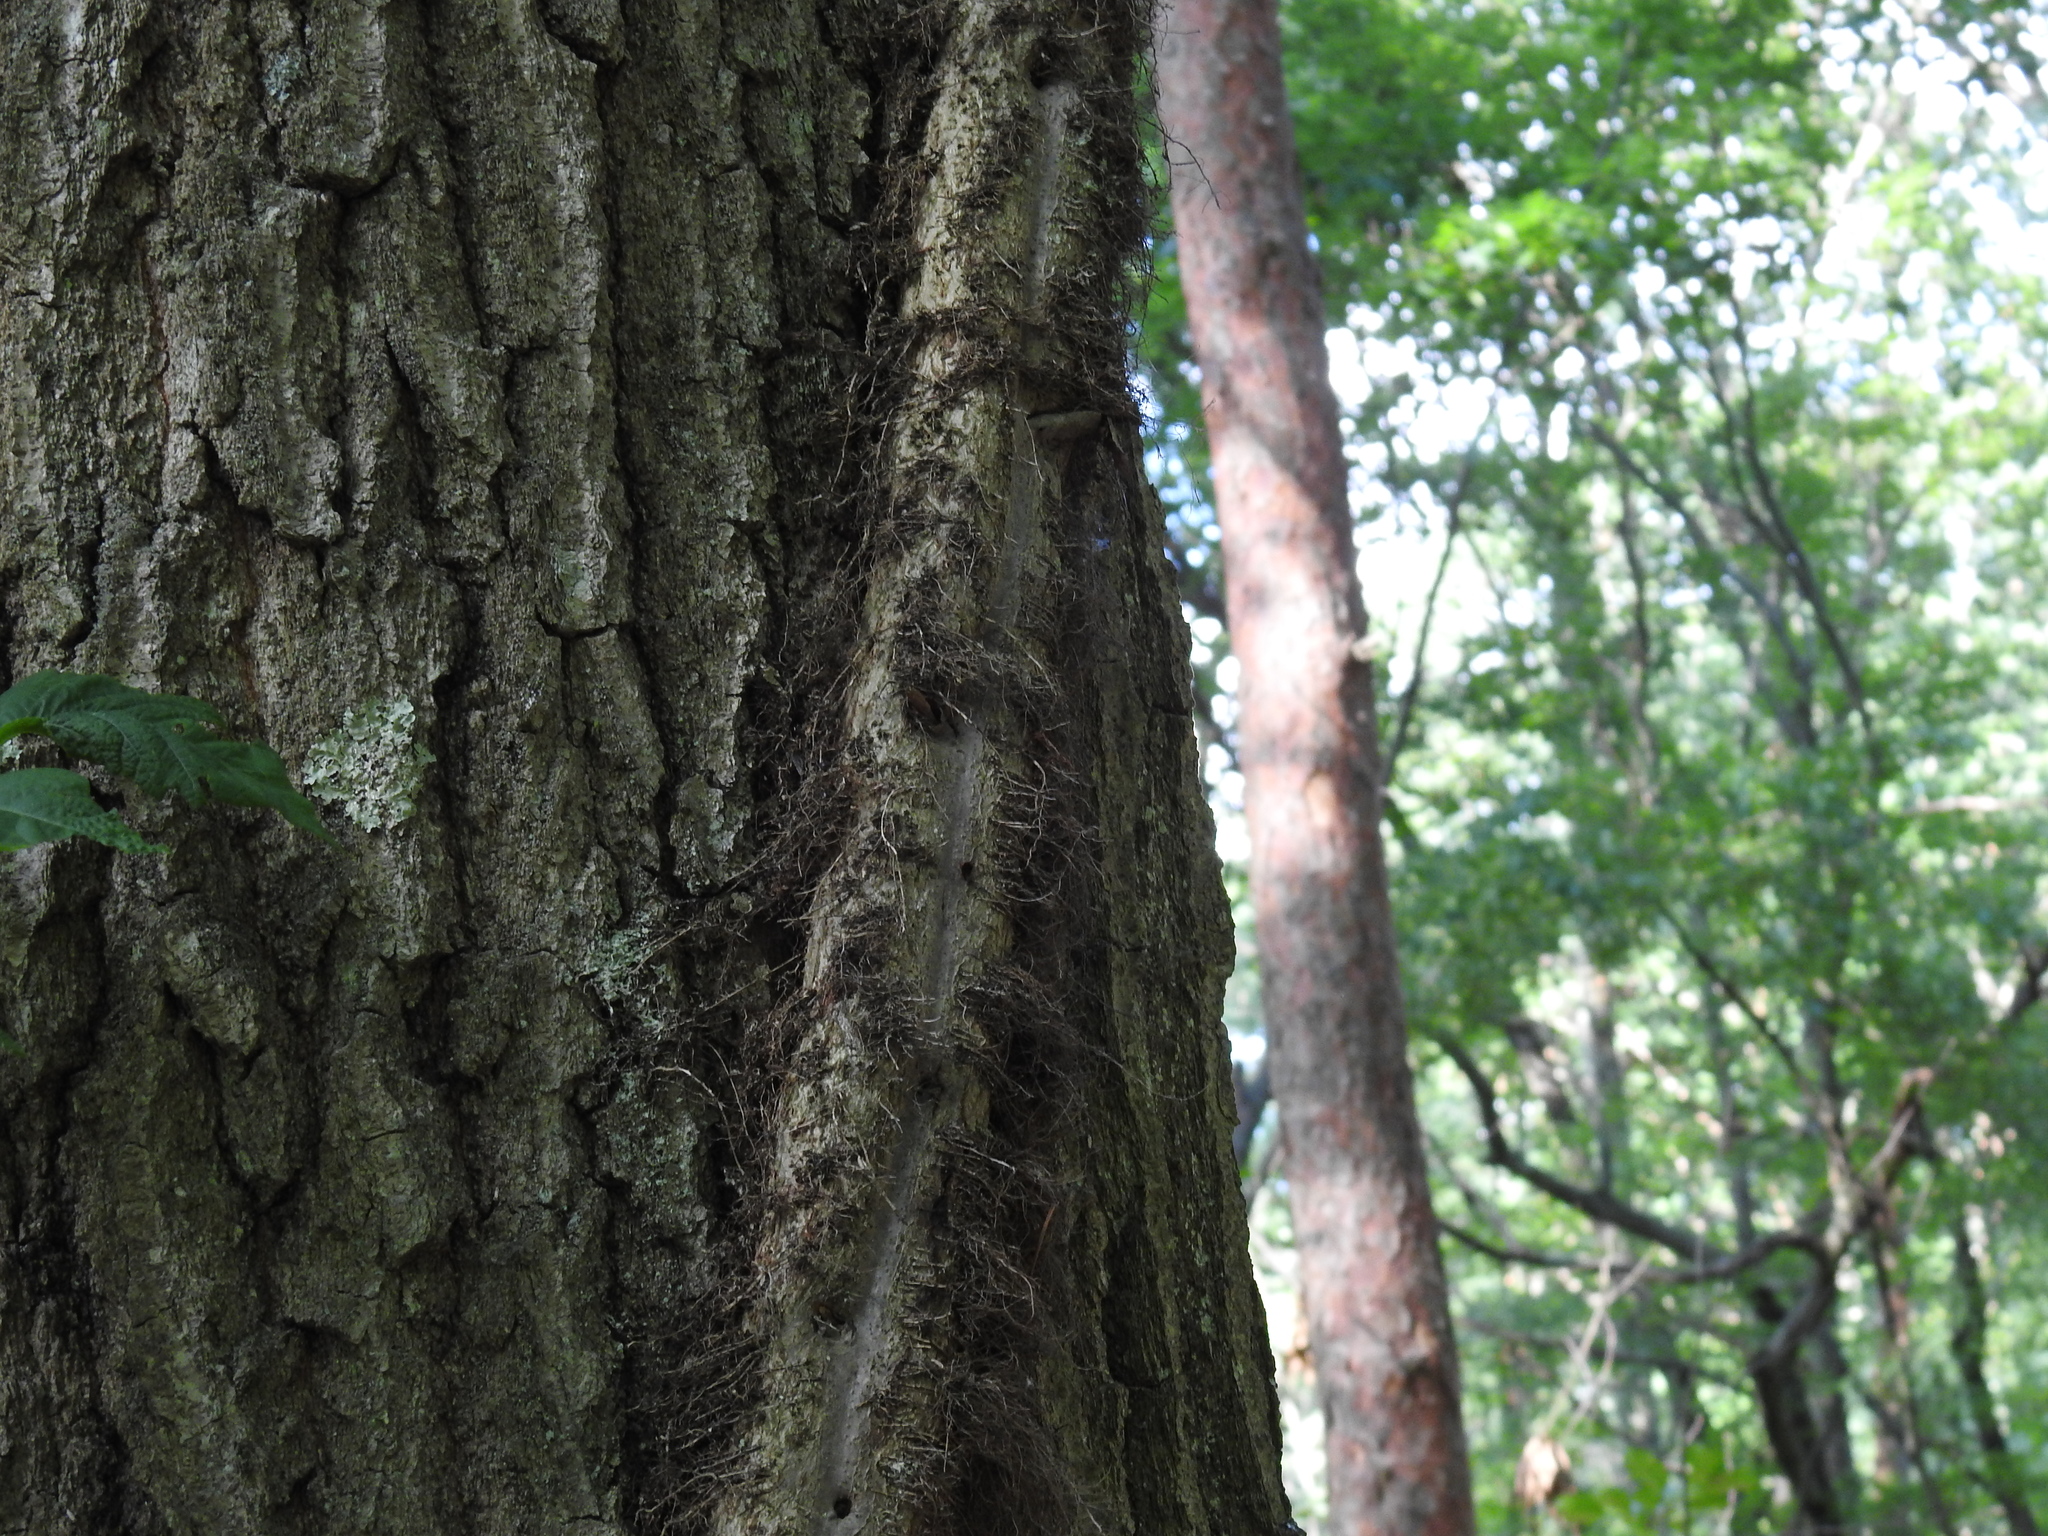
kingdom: Plantae
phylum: Tracheophyta
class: Magnoliopsida
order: Sapindales
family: Anacardiaceae
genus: Toxicodendron
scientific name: Toxicodendron radicans
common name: Poison ivy
